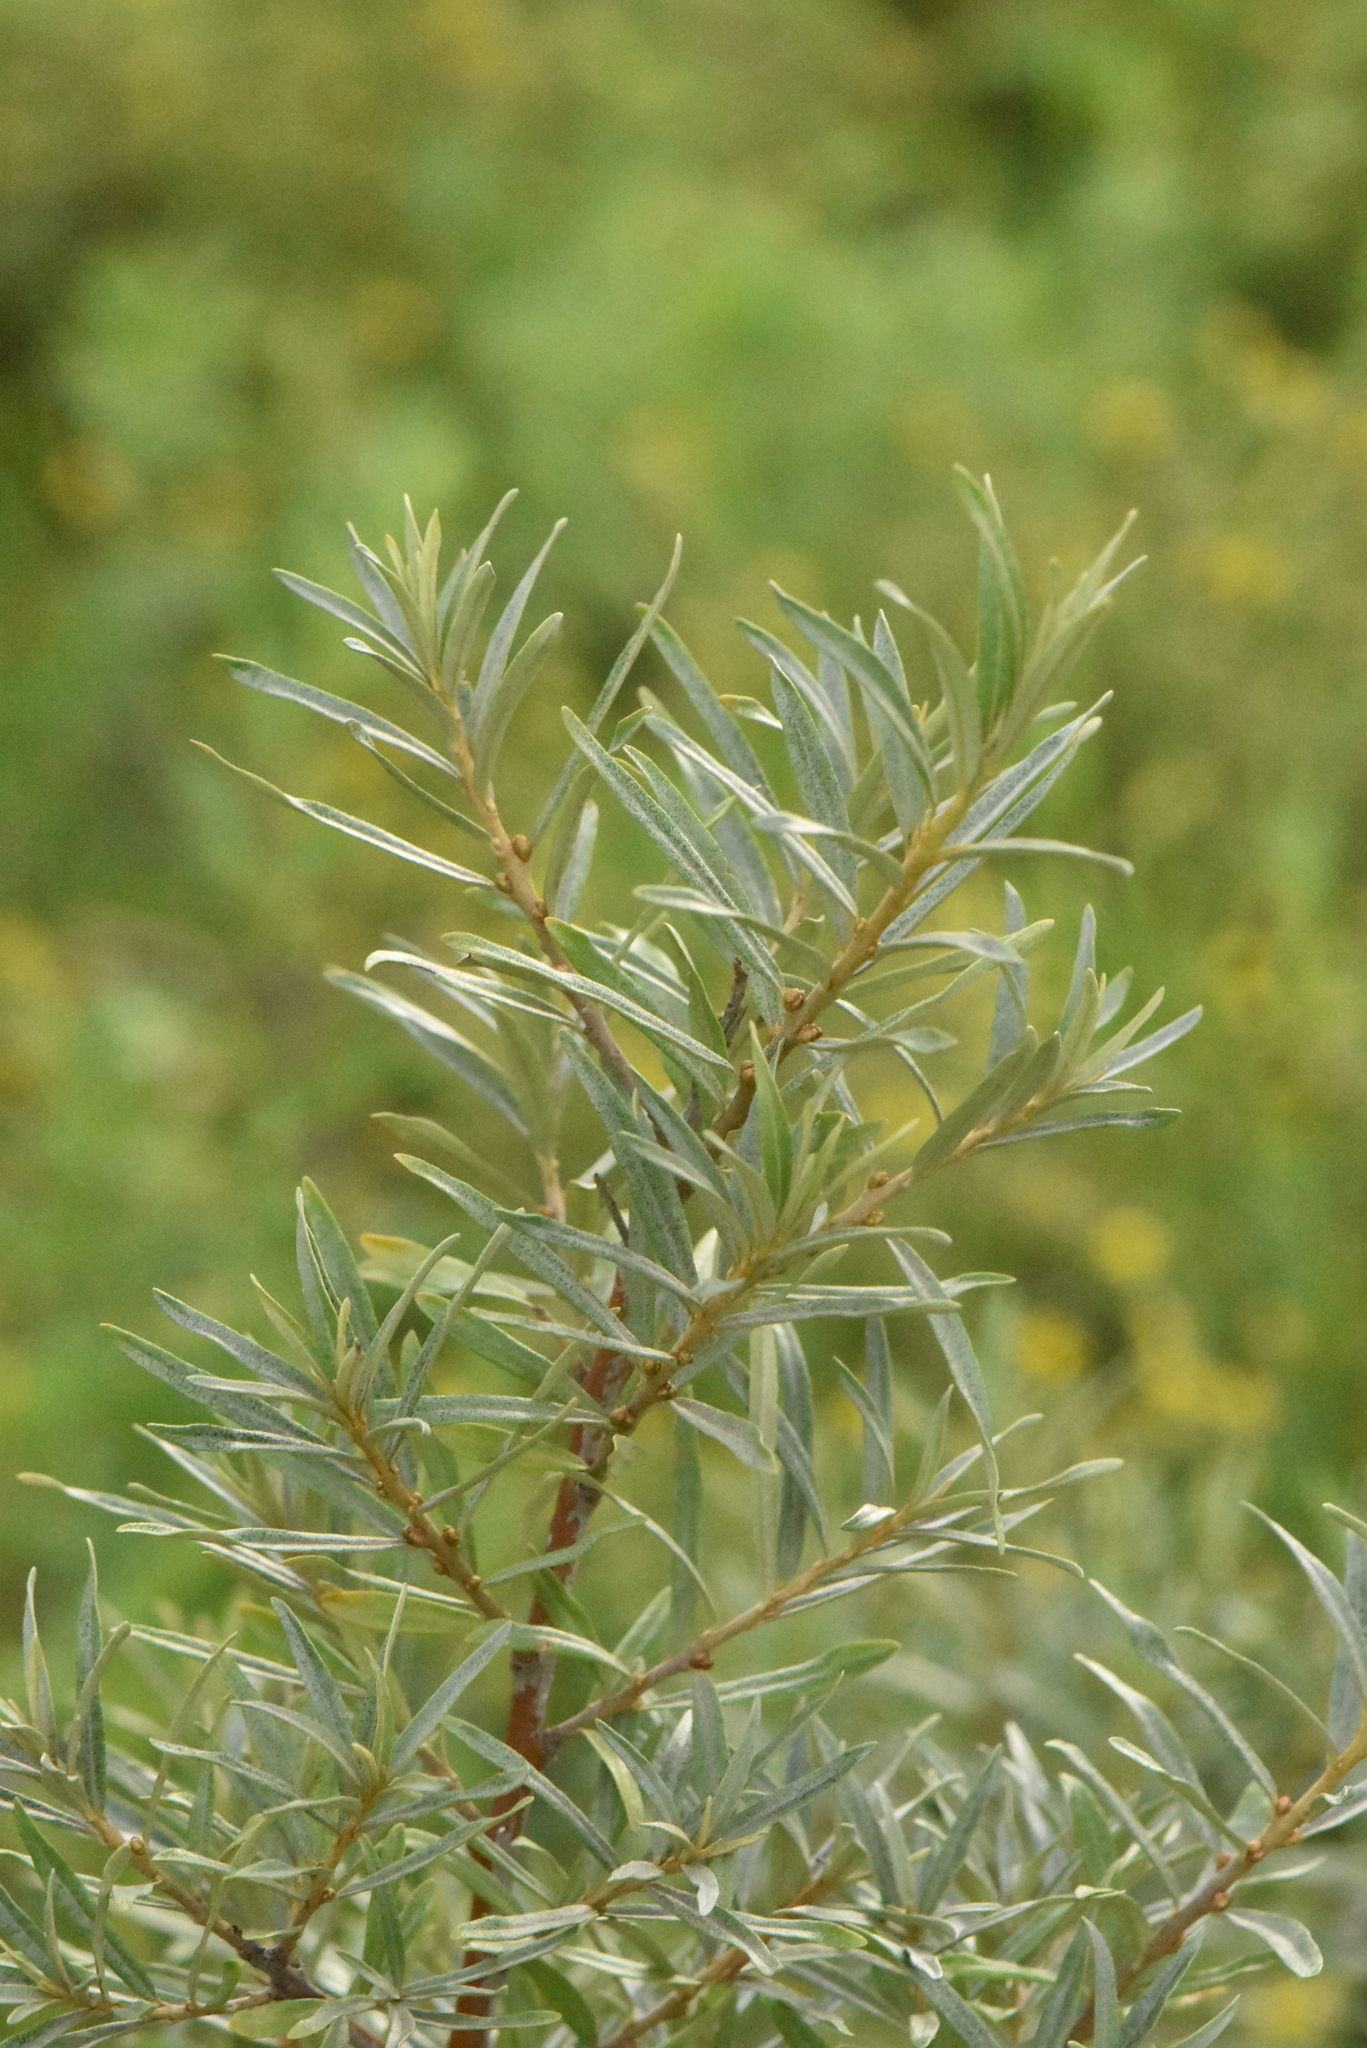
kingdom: Plantae
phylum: Tracheophyta
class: Magnoliopsida
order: Rosales
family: Elaeagnaceae
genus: Hippophae
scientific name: Hippophae rhamnoides
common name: Sea-buckthorn
